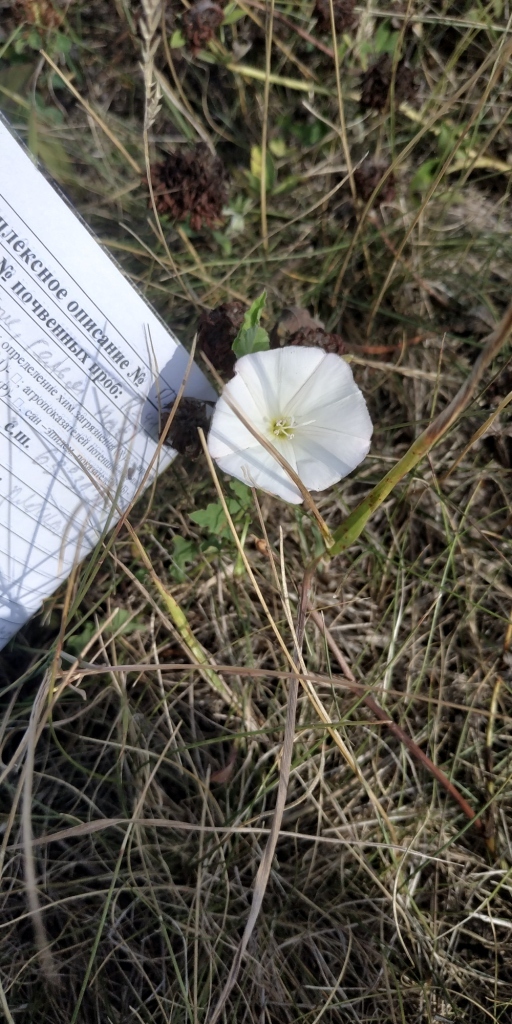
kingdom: Plantae
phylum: Tracheophyta
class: Magnoliopsida
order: Solanales
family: Convolvulaceae
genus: Convolvulus
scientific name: Convolvulus arvensis
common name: Field bindweed
